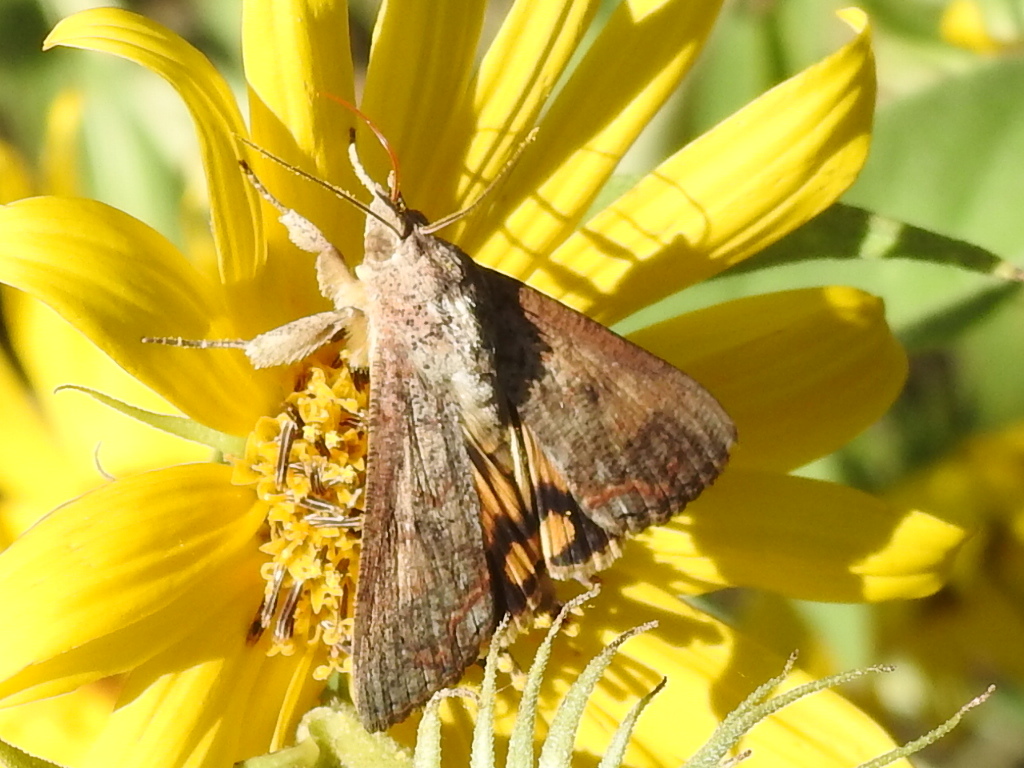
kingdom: Animalia
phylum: Arthropoda
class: Insecta
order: Lepidoptera
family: Erebidae
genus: Hypocala
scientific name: Hypocala andremona
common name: Hypocala moth
